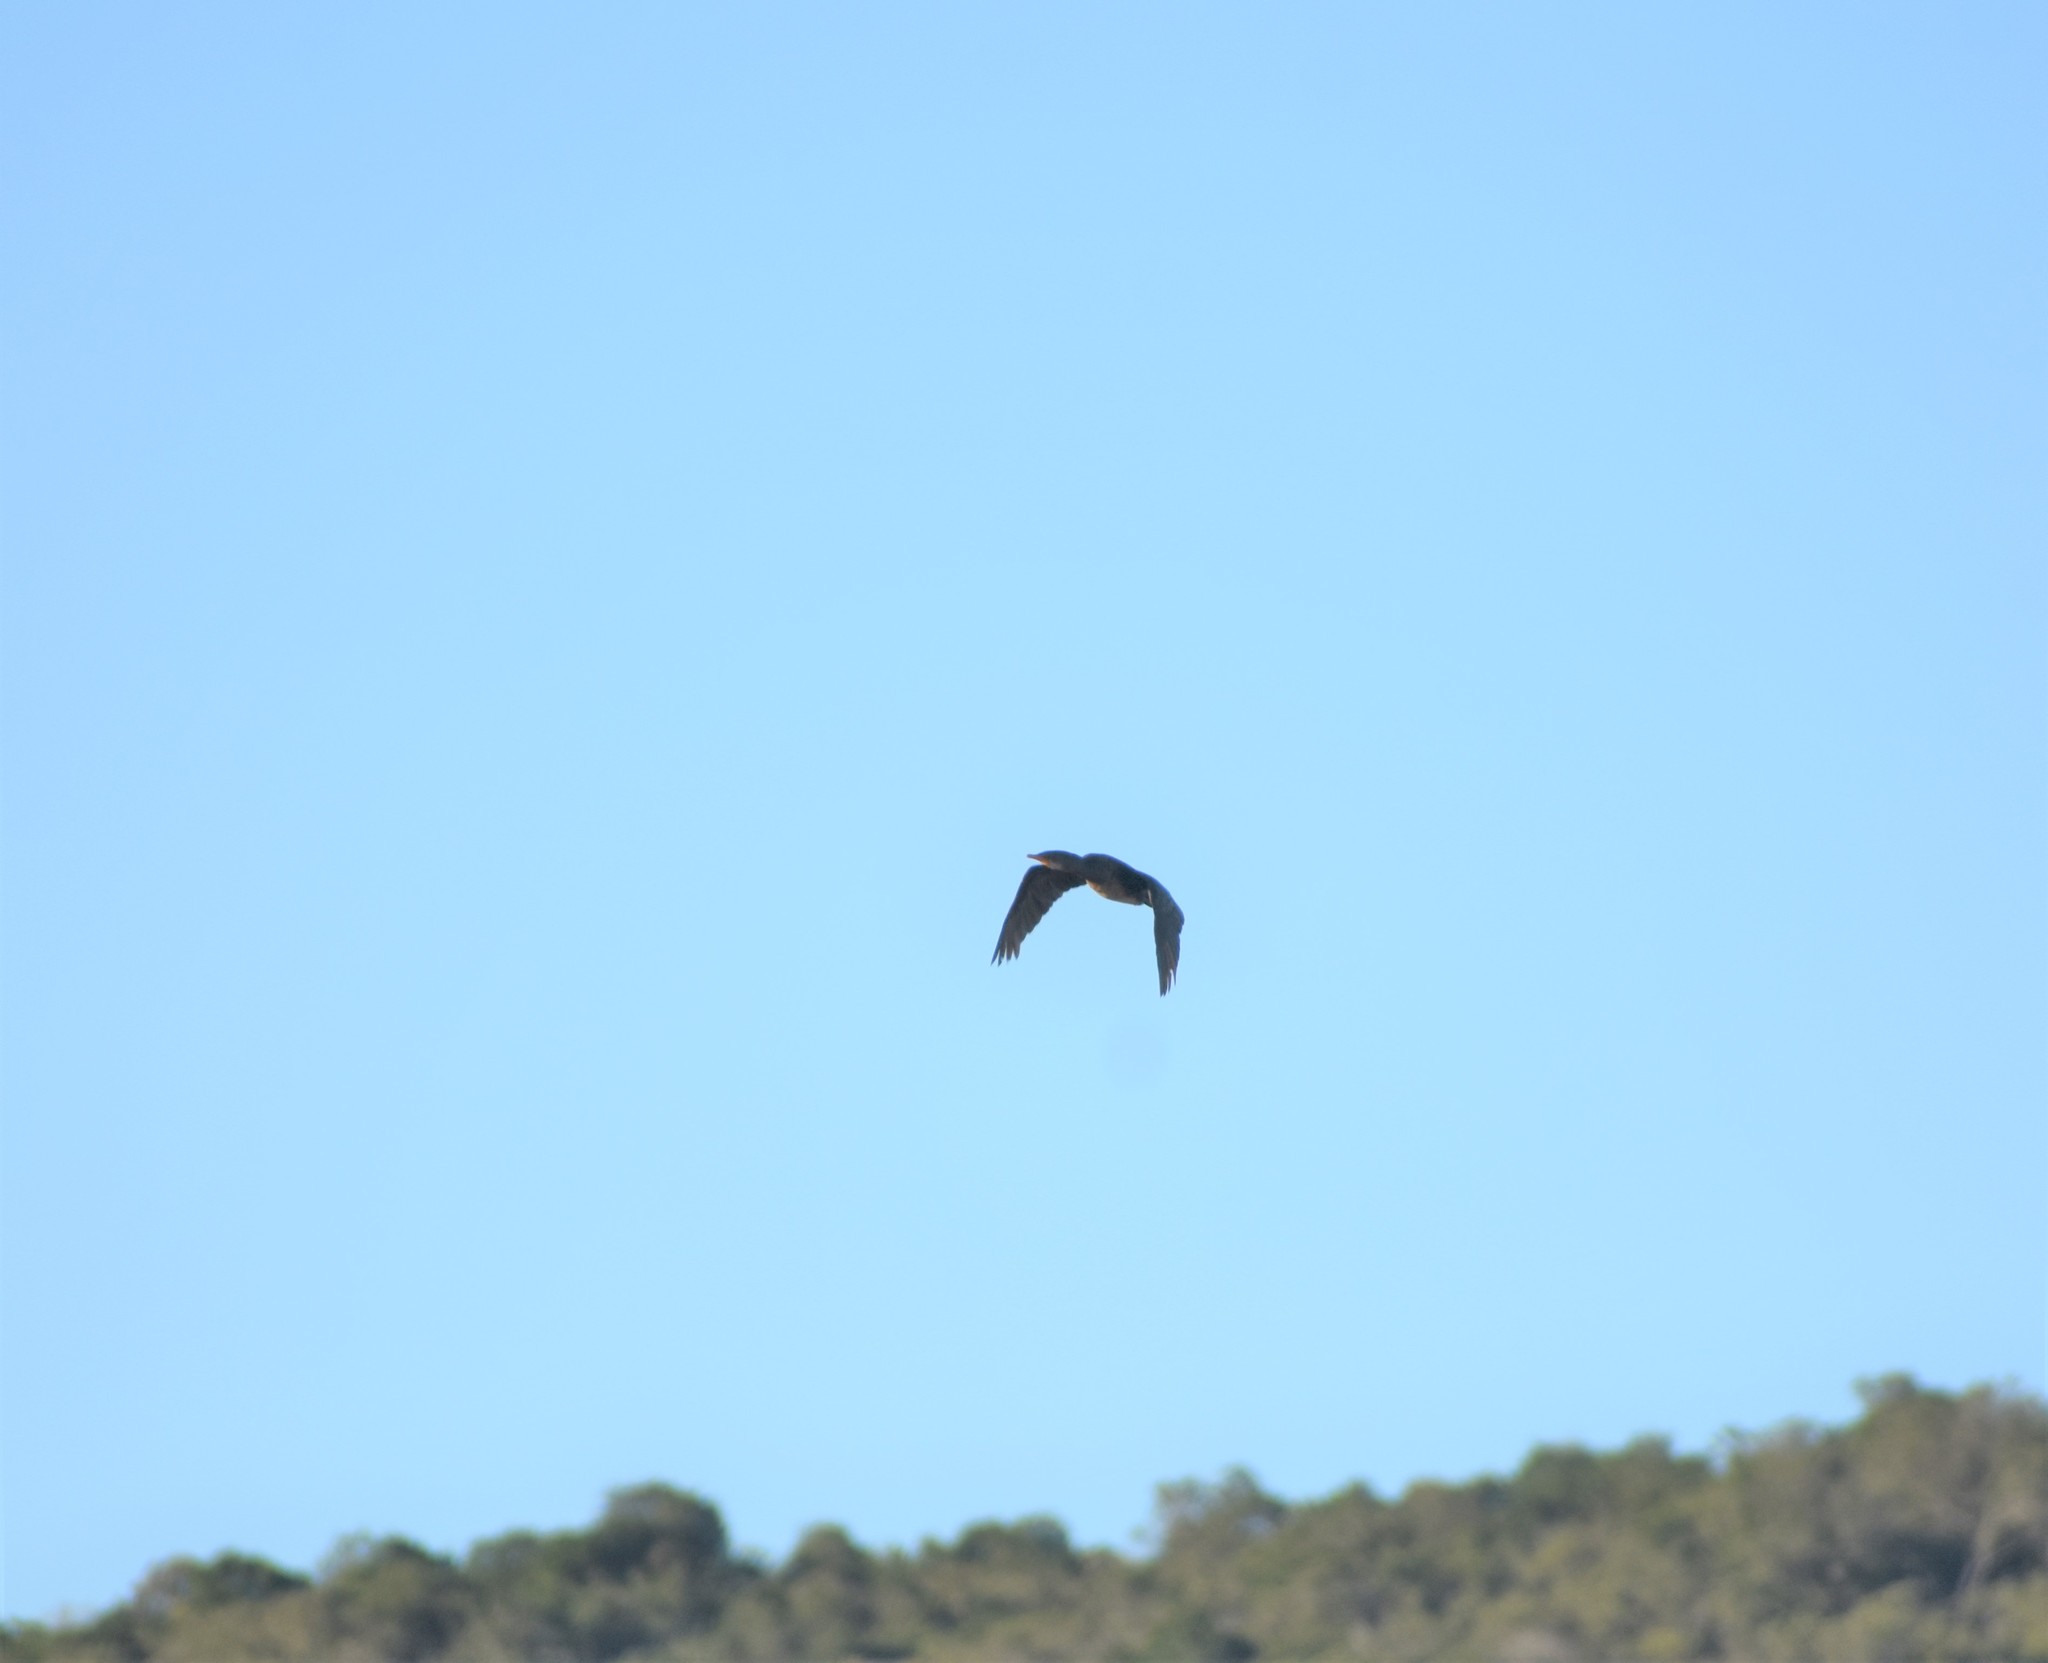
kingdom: Animalia
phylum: Chordata
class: Aves
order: Suliformes
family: Phalacrocoracidae
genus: Microcarbo
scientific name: Microcarbo africanus
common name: Long-tailed cormorant
